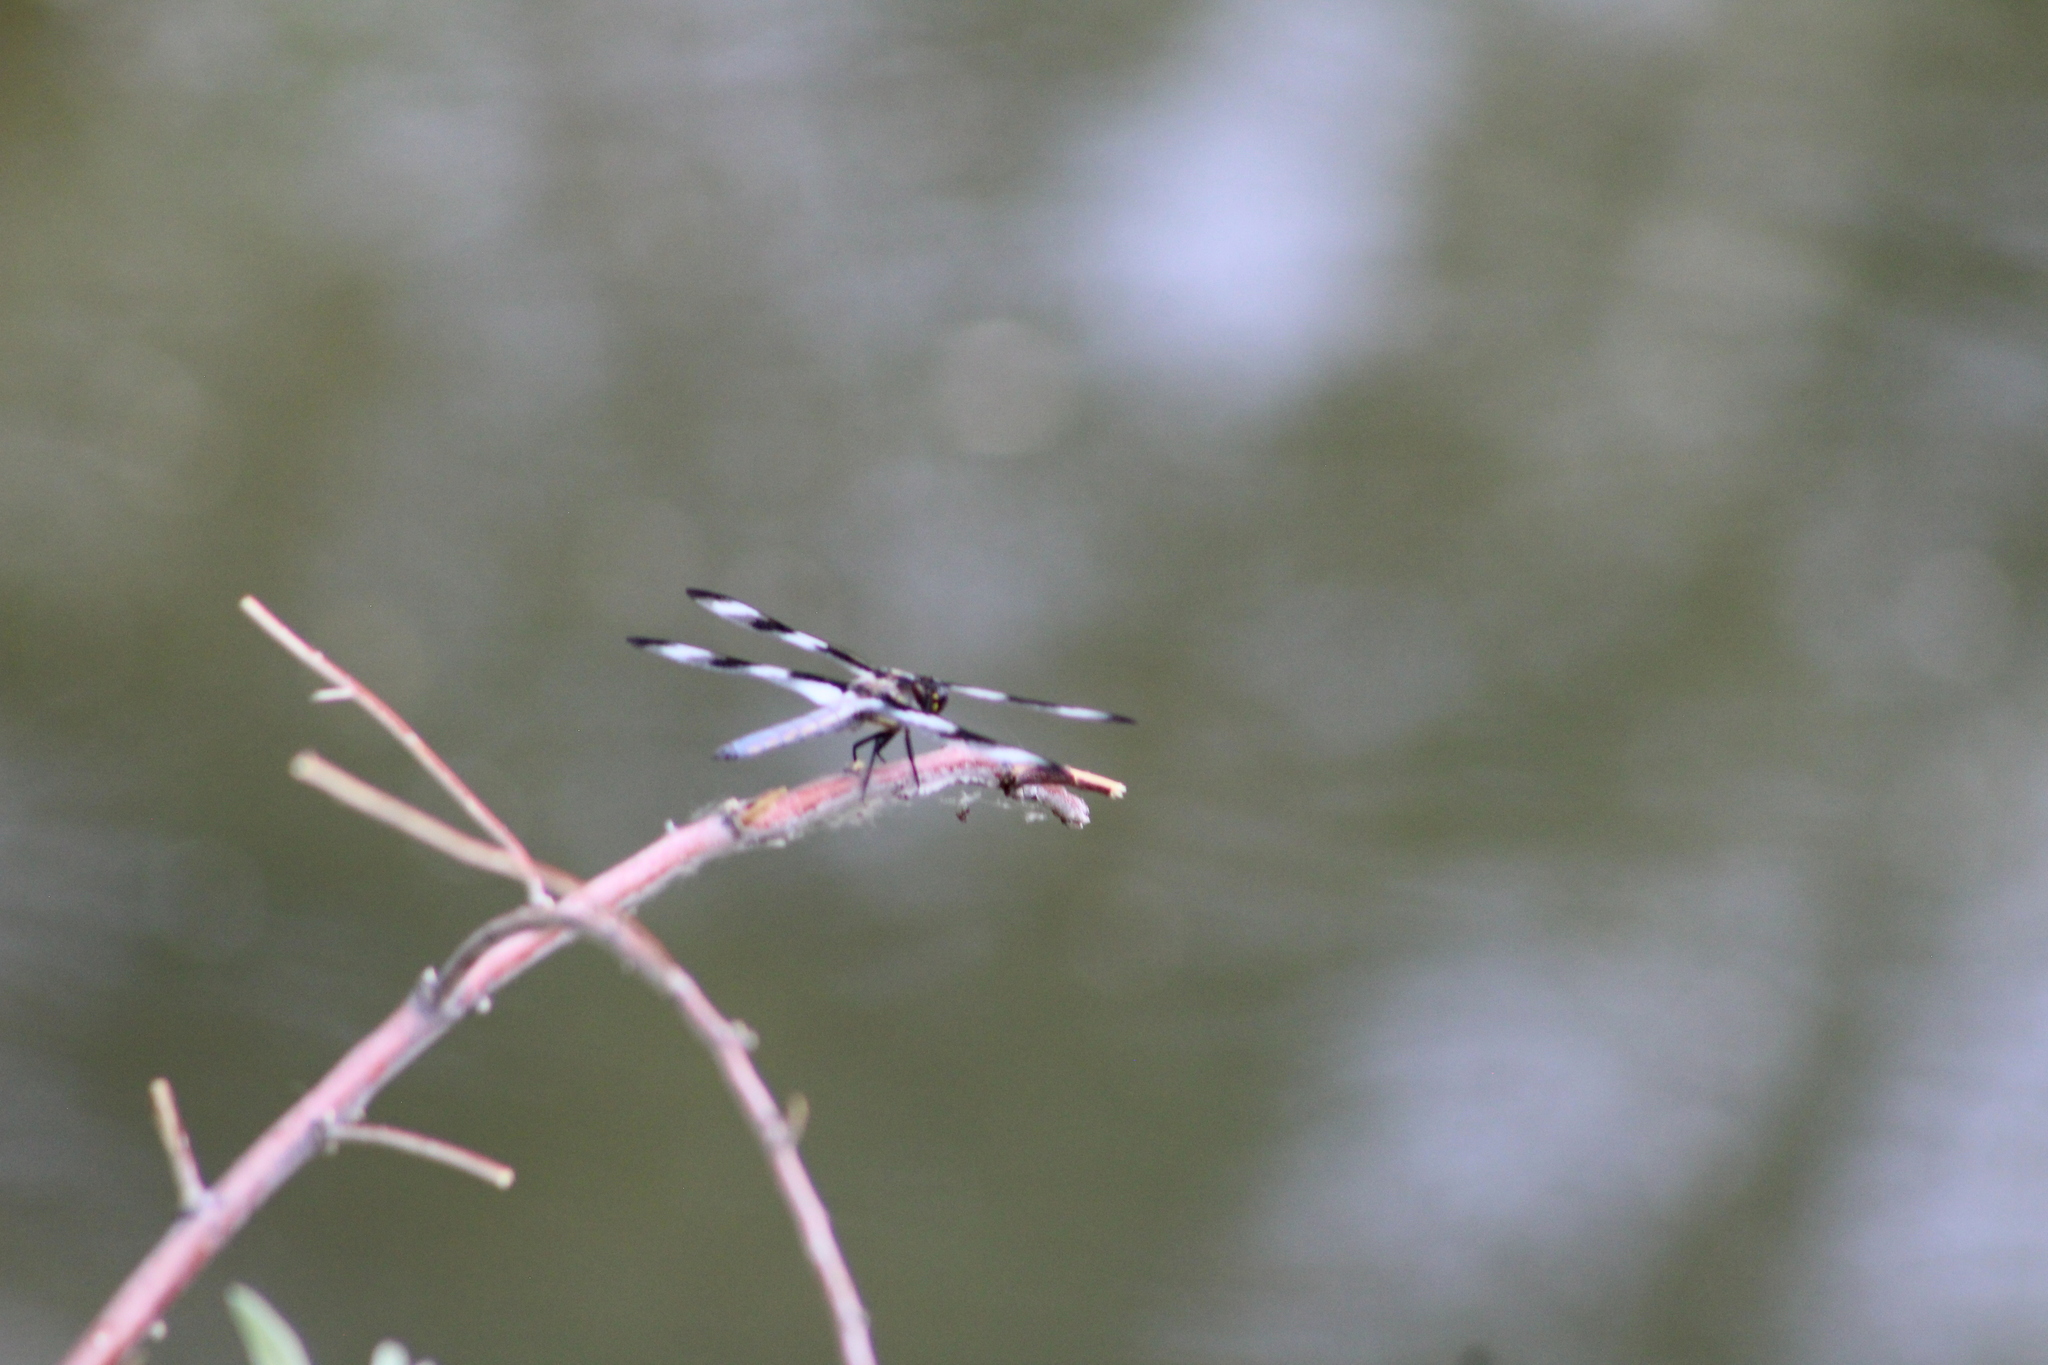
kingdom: Animalia
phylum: Arthropoda
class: Insecta
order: Odonata
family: Libellulidae
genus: Libellula
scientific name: Libellula pulchella
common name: Twelve-spotted skimmer
